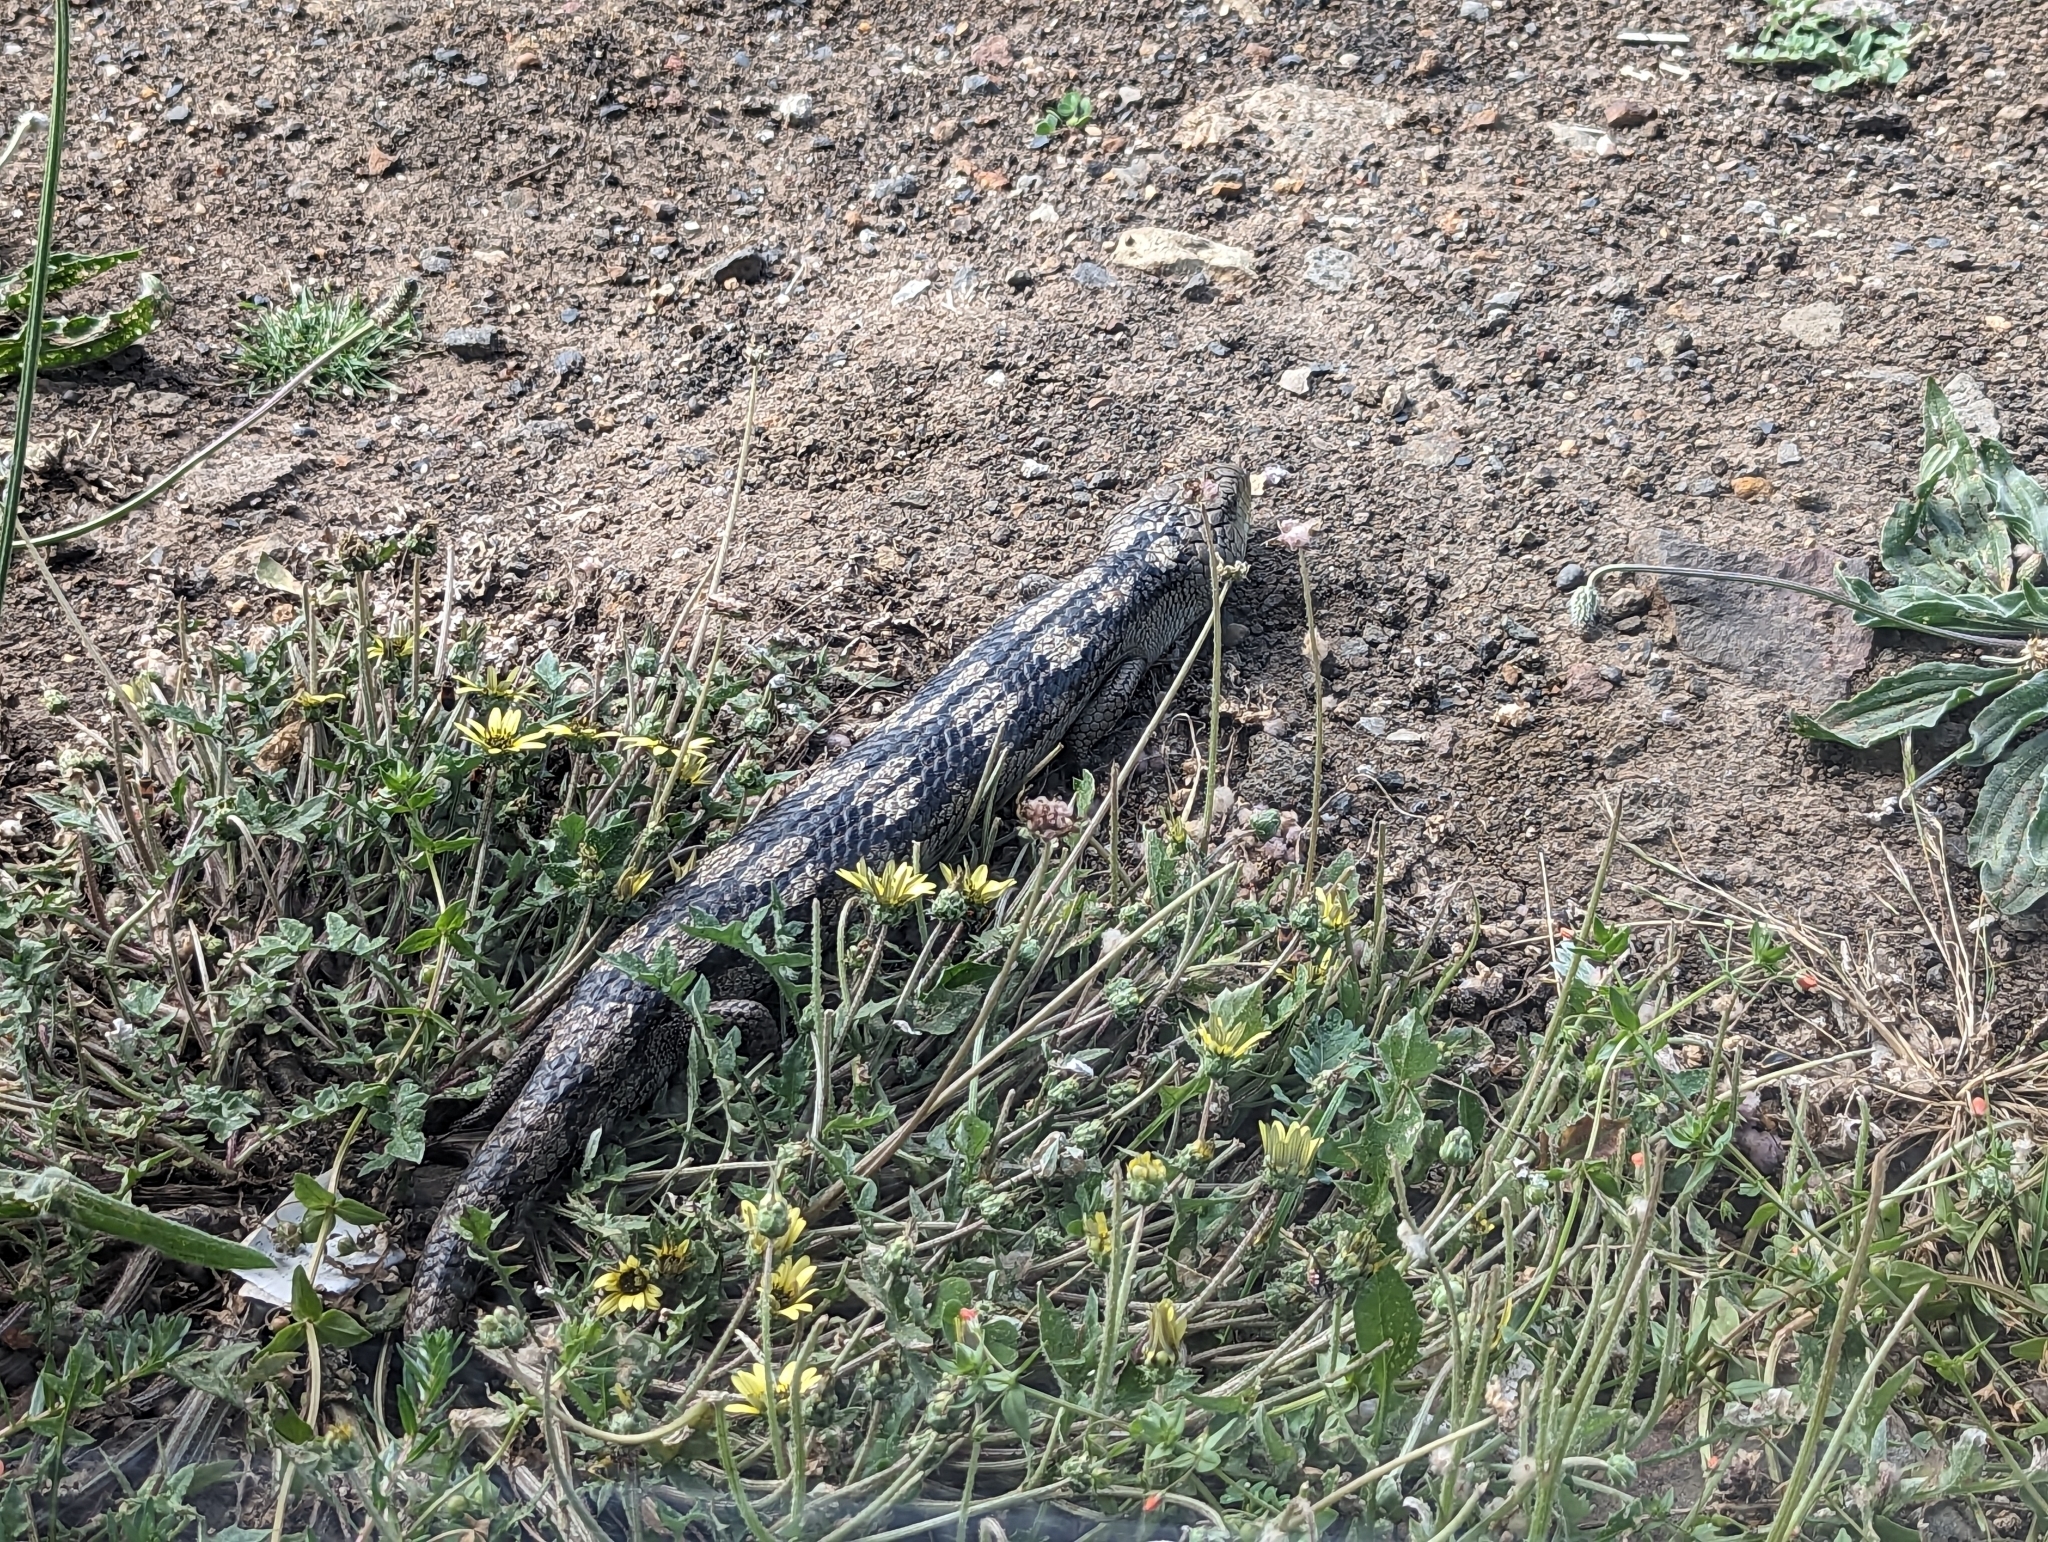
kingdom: Animalia
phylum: Chordata
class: Squamata
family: Scincidae
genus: Tiliqua
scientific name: Tiliqua nigrolutea
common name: Blotched blue-tongued lizard
